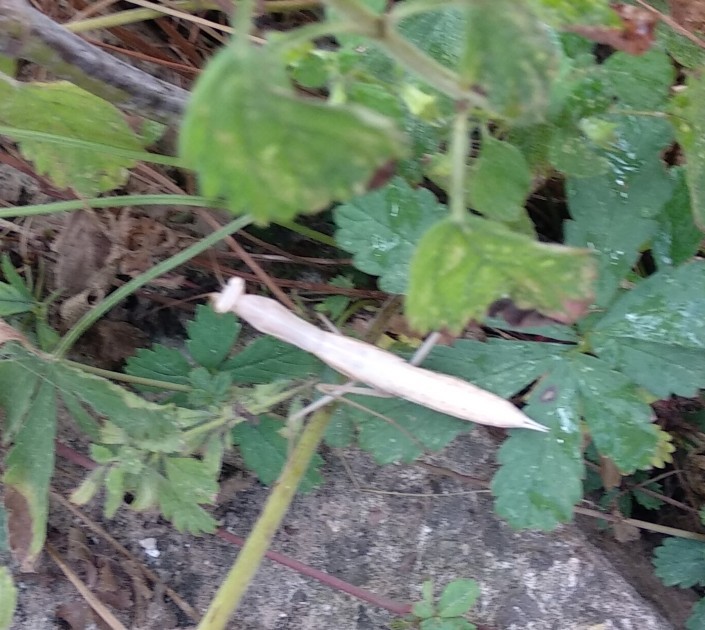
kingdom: Animalia
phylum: Arthropoda
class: Insecta
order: Mantodea
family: Mantidae
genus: Mantis
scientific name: Mantis religiosa
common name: Praying mantis
